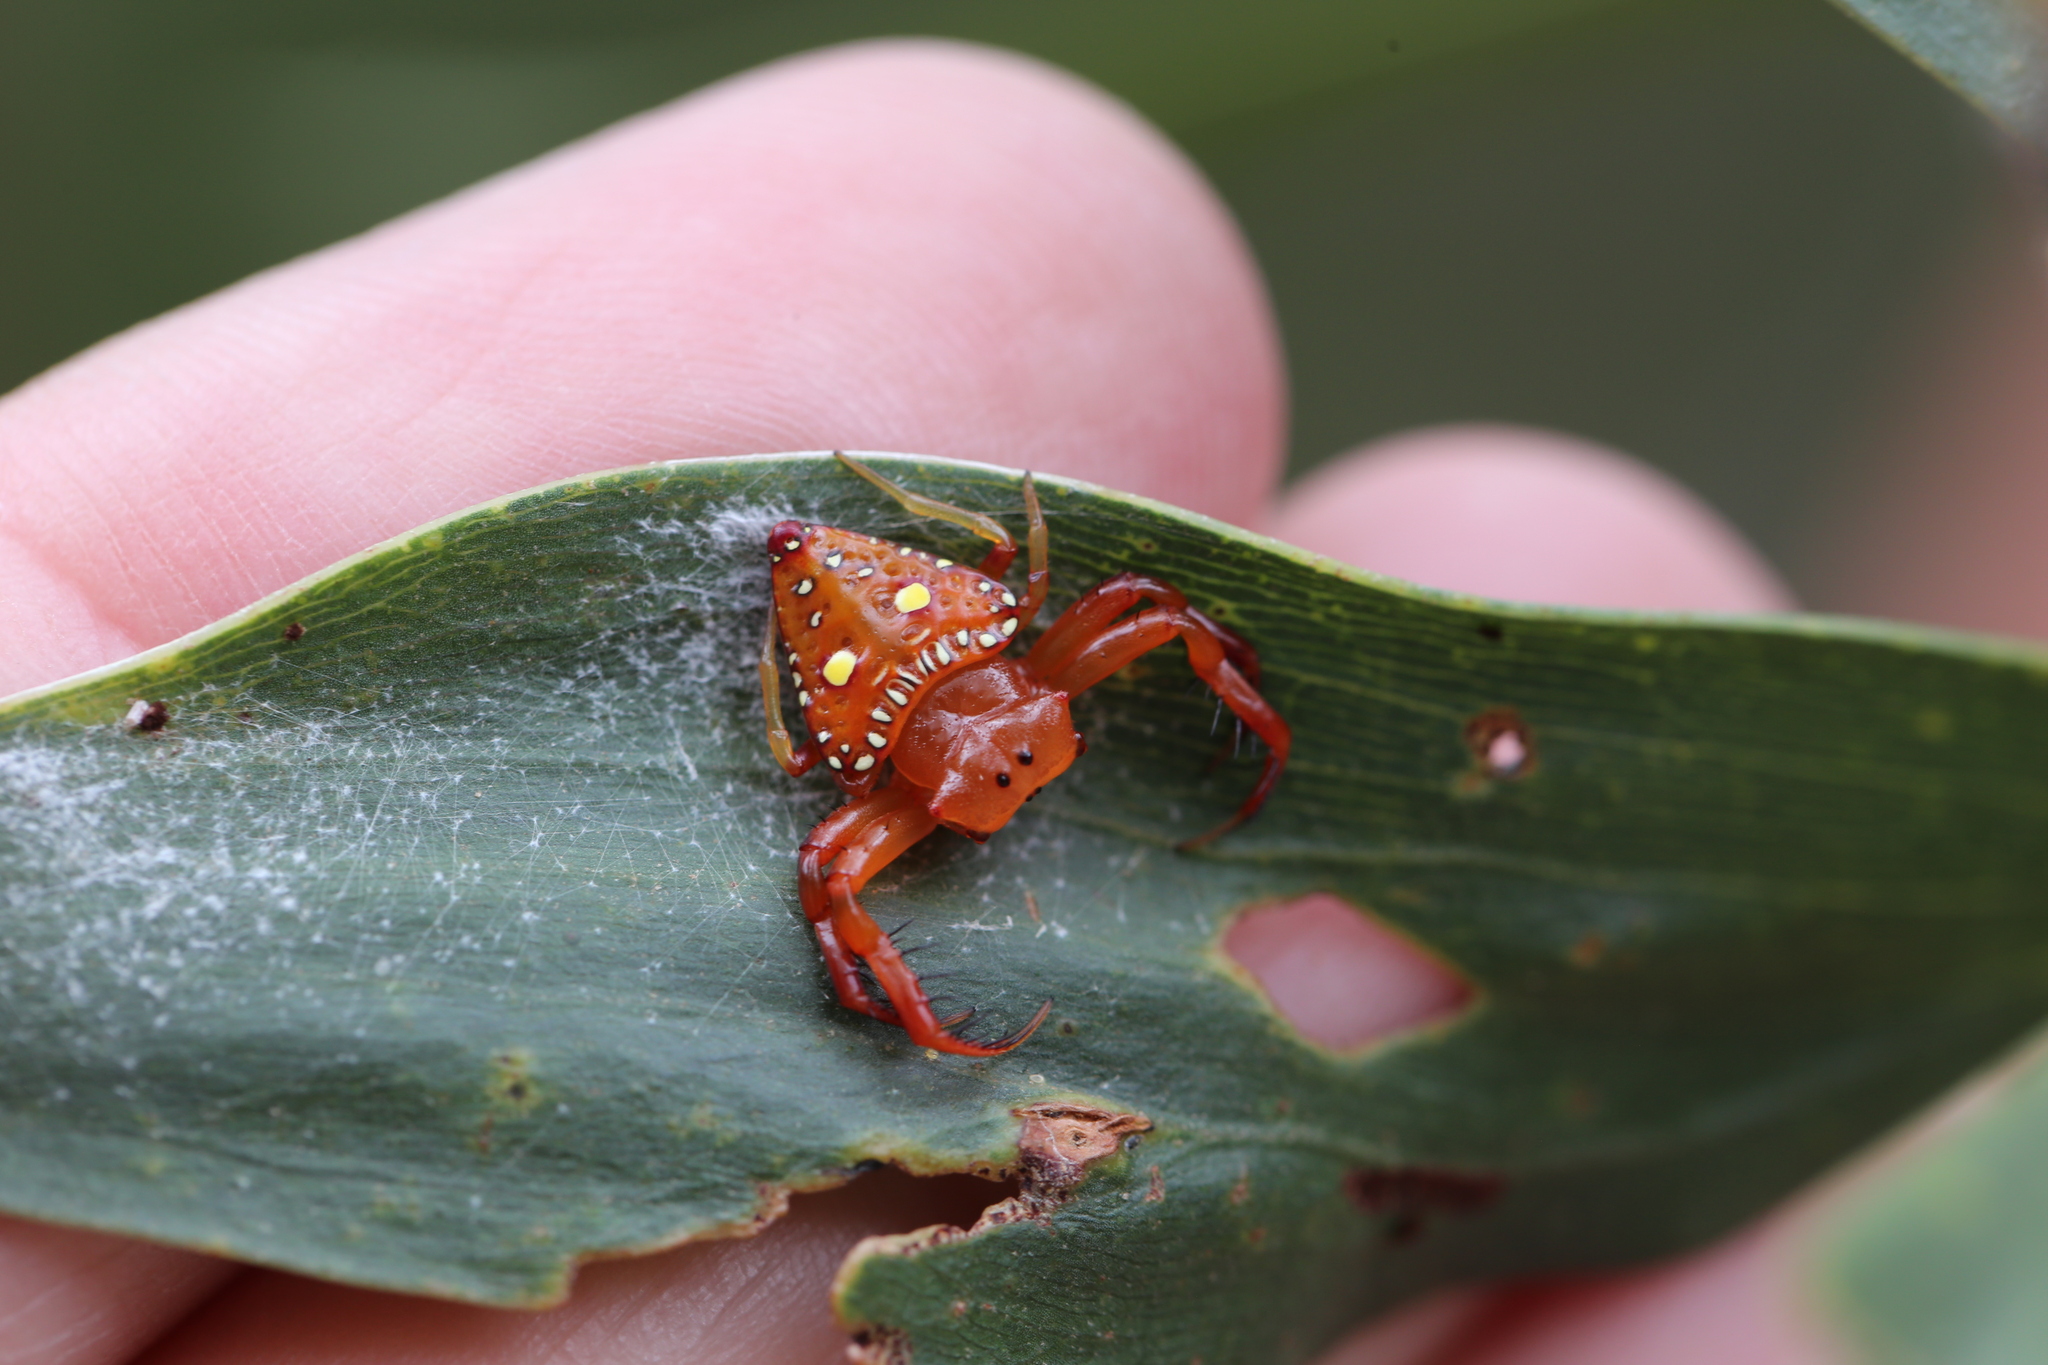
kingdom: Animalia
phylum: Arthropoda
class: Arachnida
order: Araneae
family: Arkyidae
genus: Arkys
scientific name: Arkys lancearius
